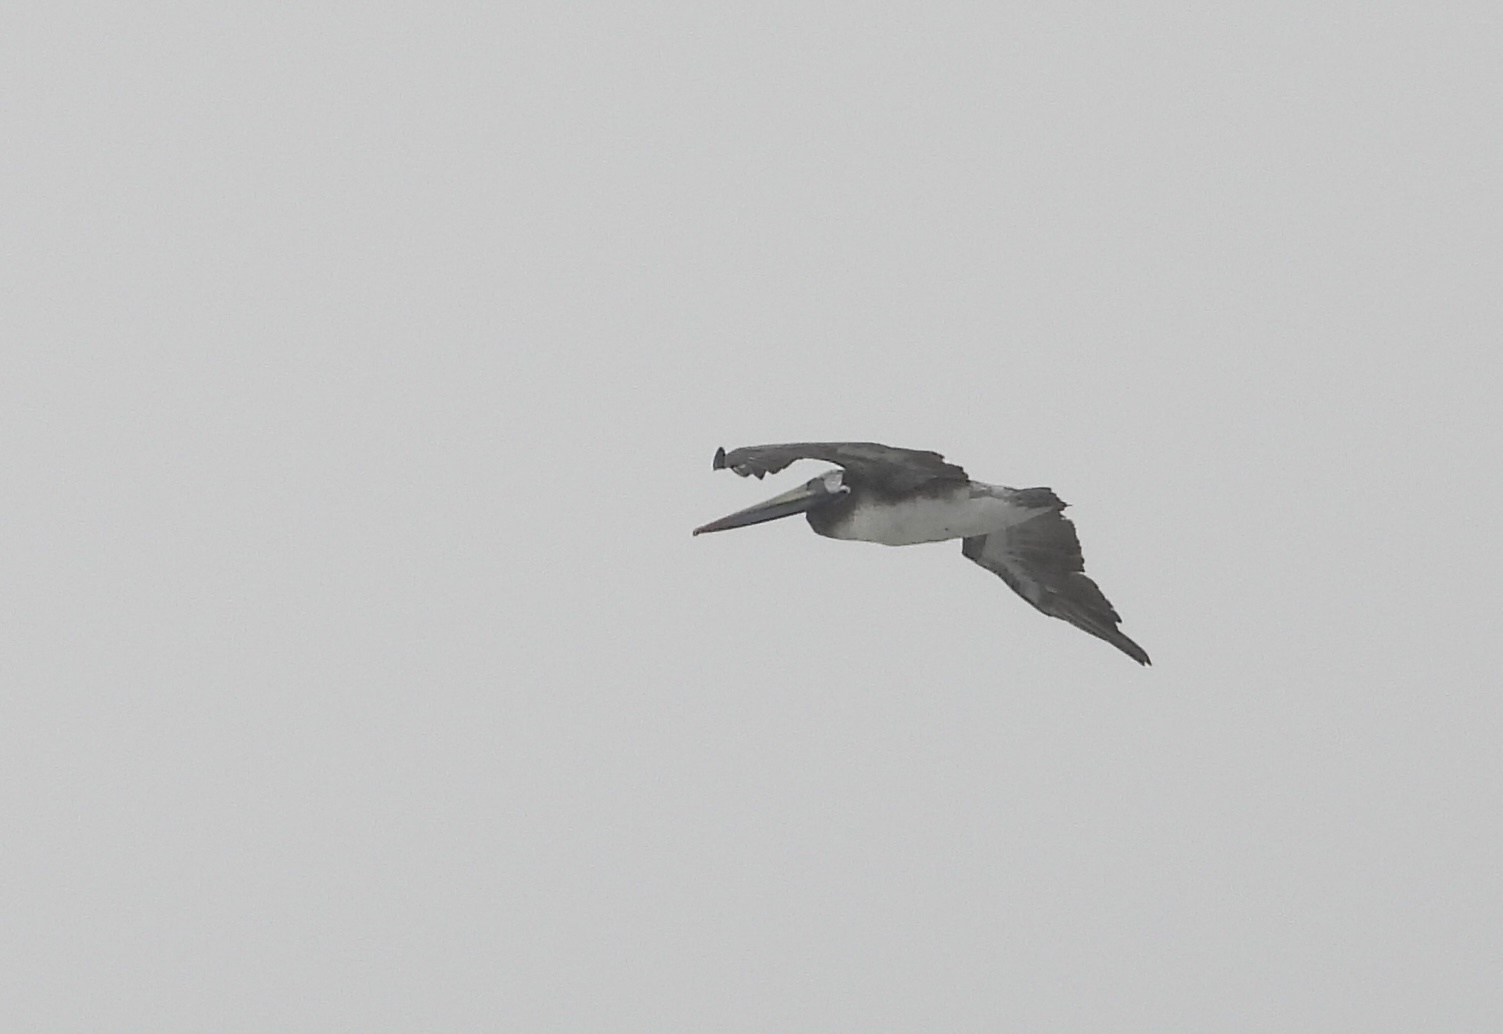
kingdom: Animalia
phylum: Chordata
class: Aves
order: Pelecaniformes
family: Pelecanidae
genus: Pelecanus
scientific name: Pelecanus thagus
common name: Peruvian pelican
